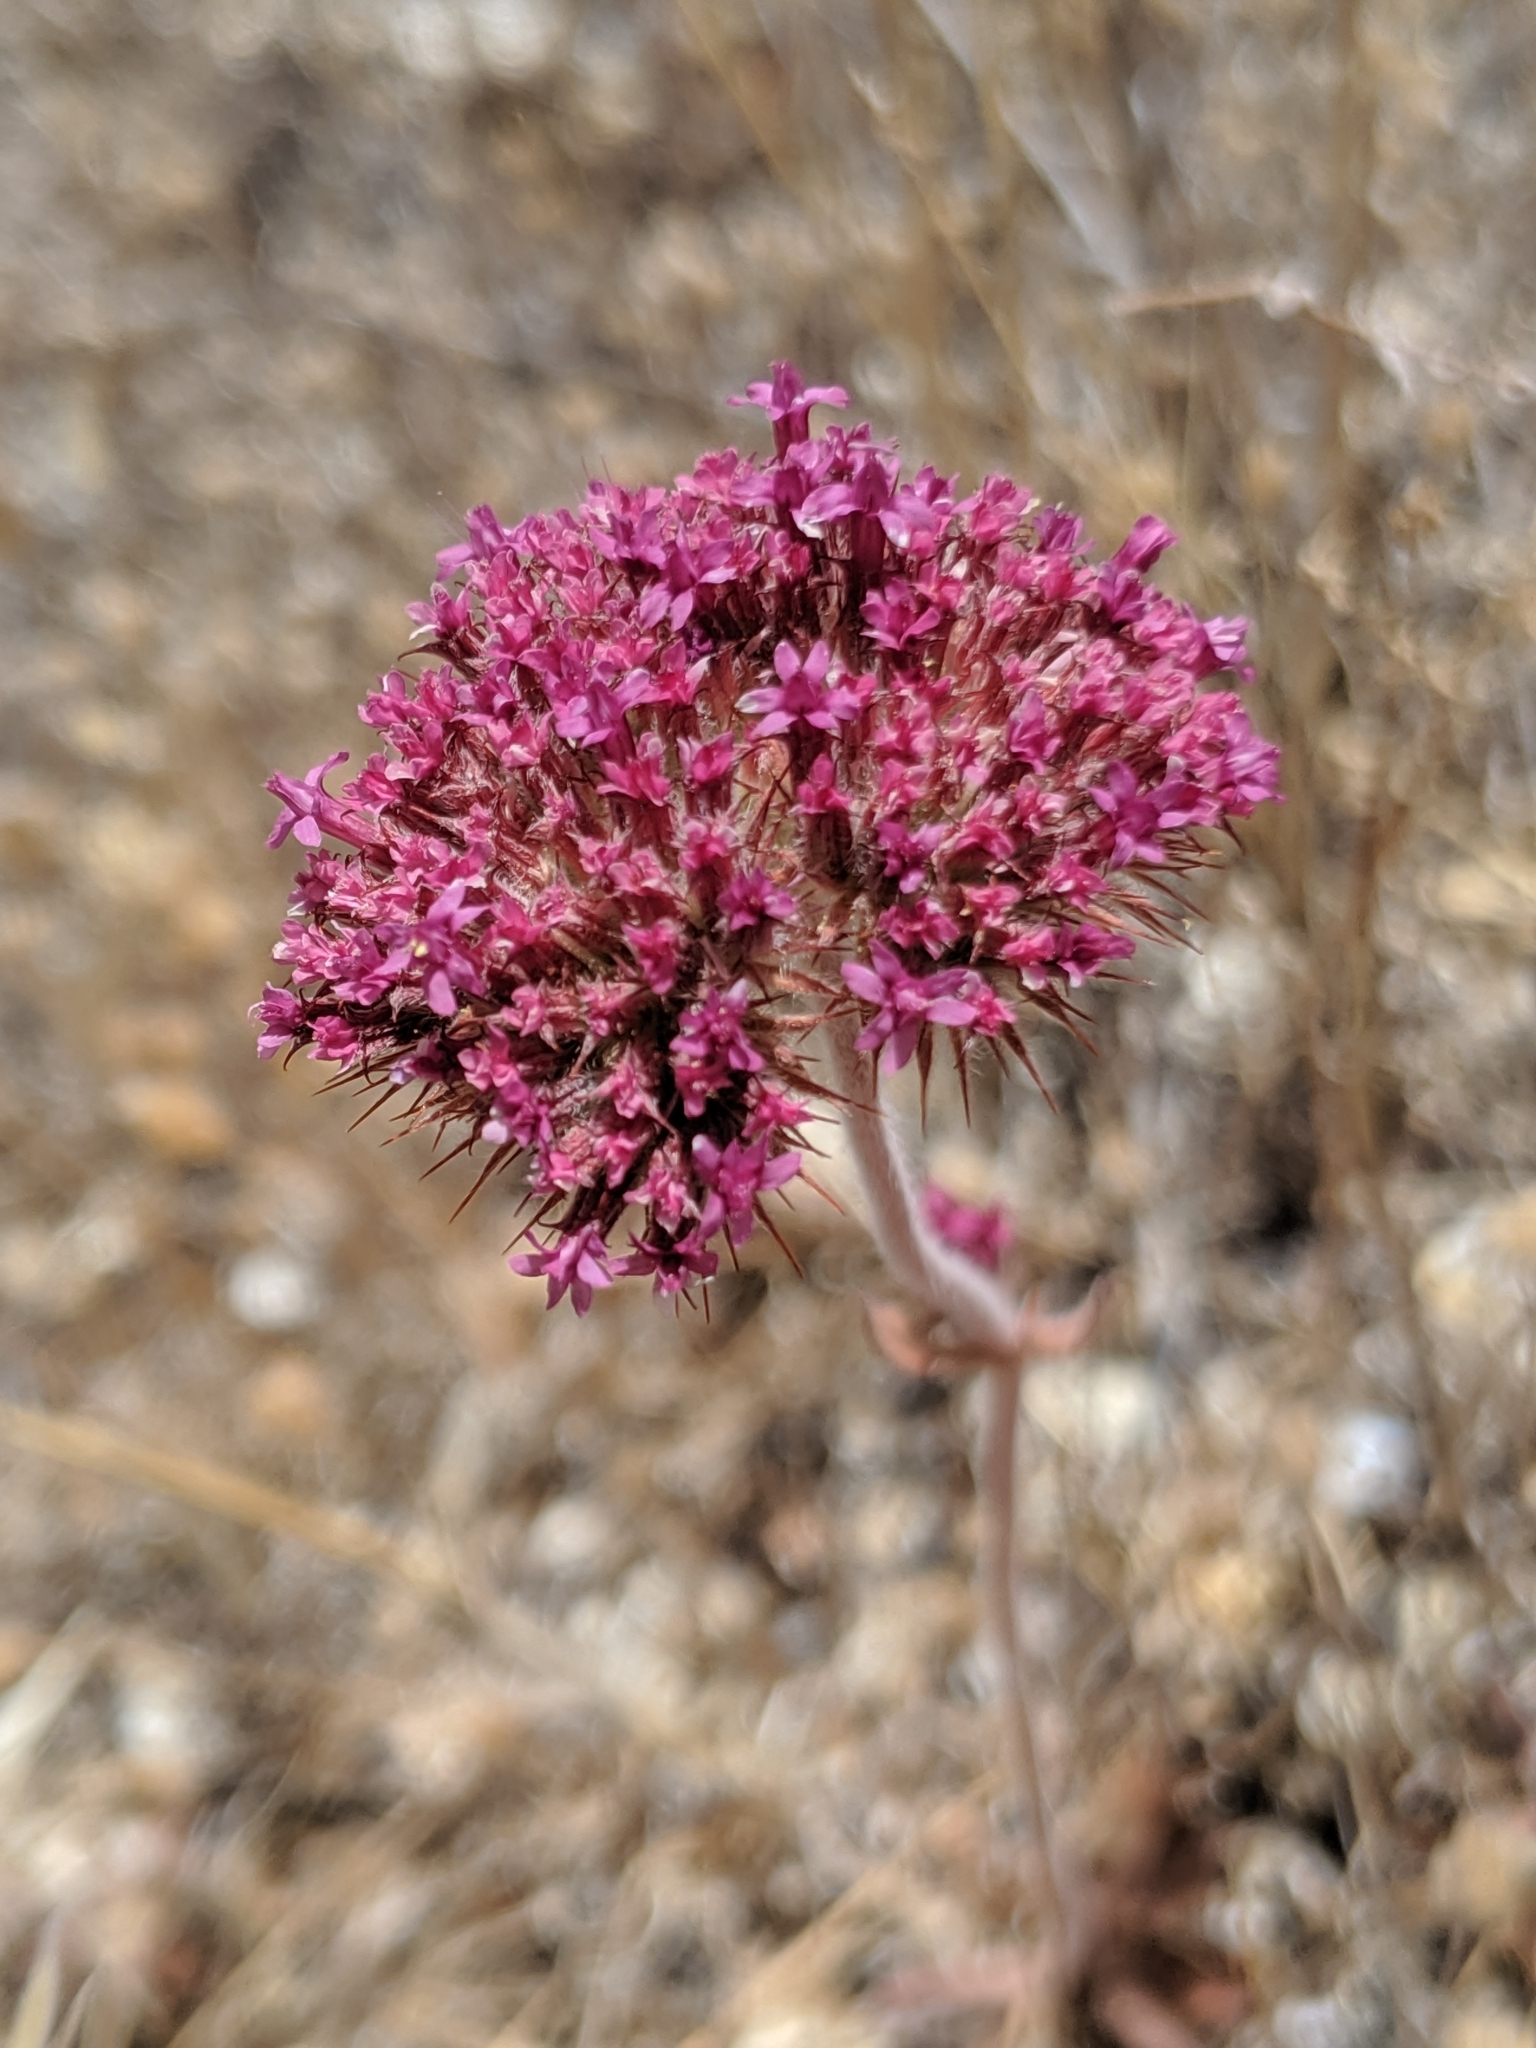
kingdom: Plantae
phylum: Tracheophyta
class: Magnoliopsida
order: Caryophyllales
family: Polygonaceae
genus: Chorizanthe
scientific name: Chorizanthe biloba
